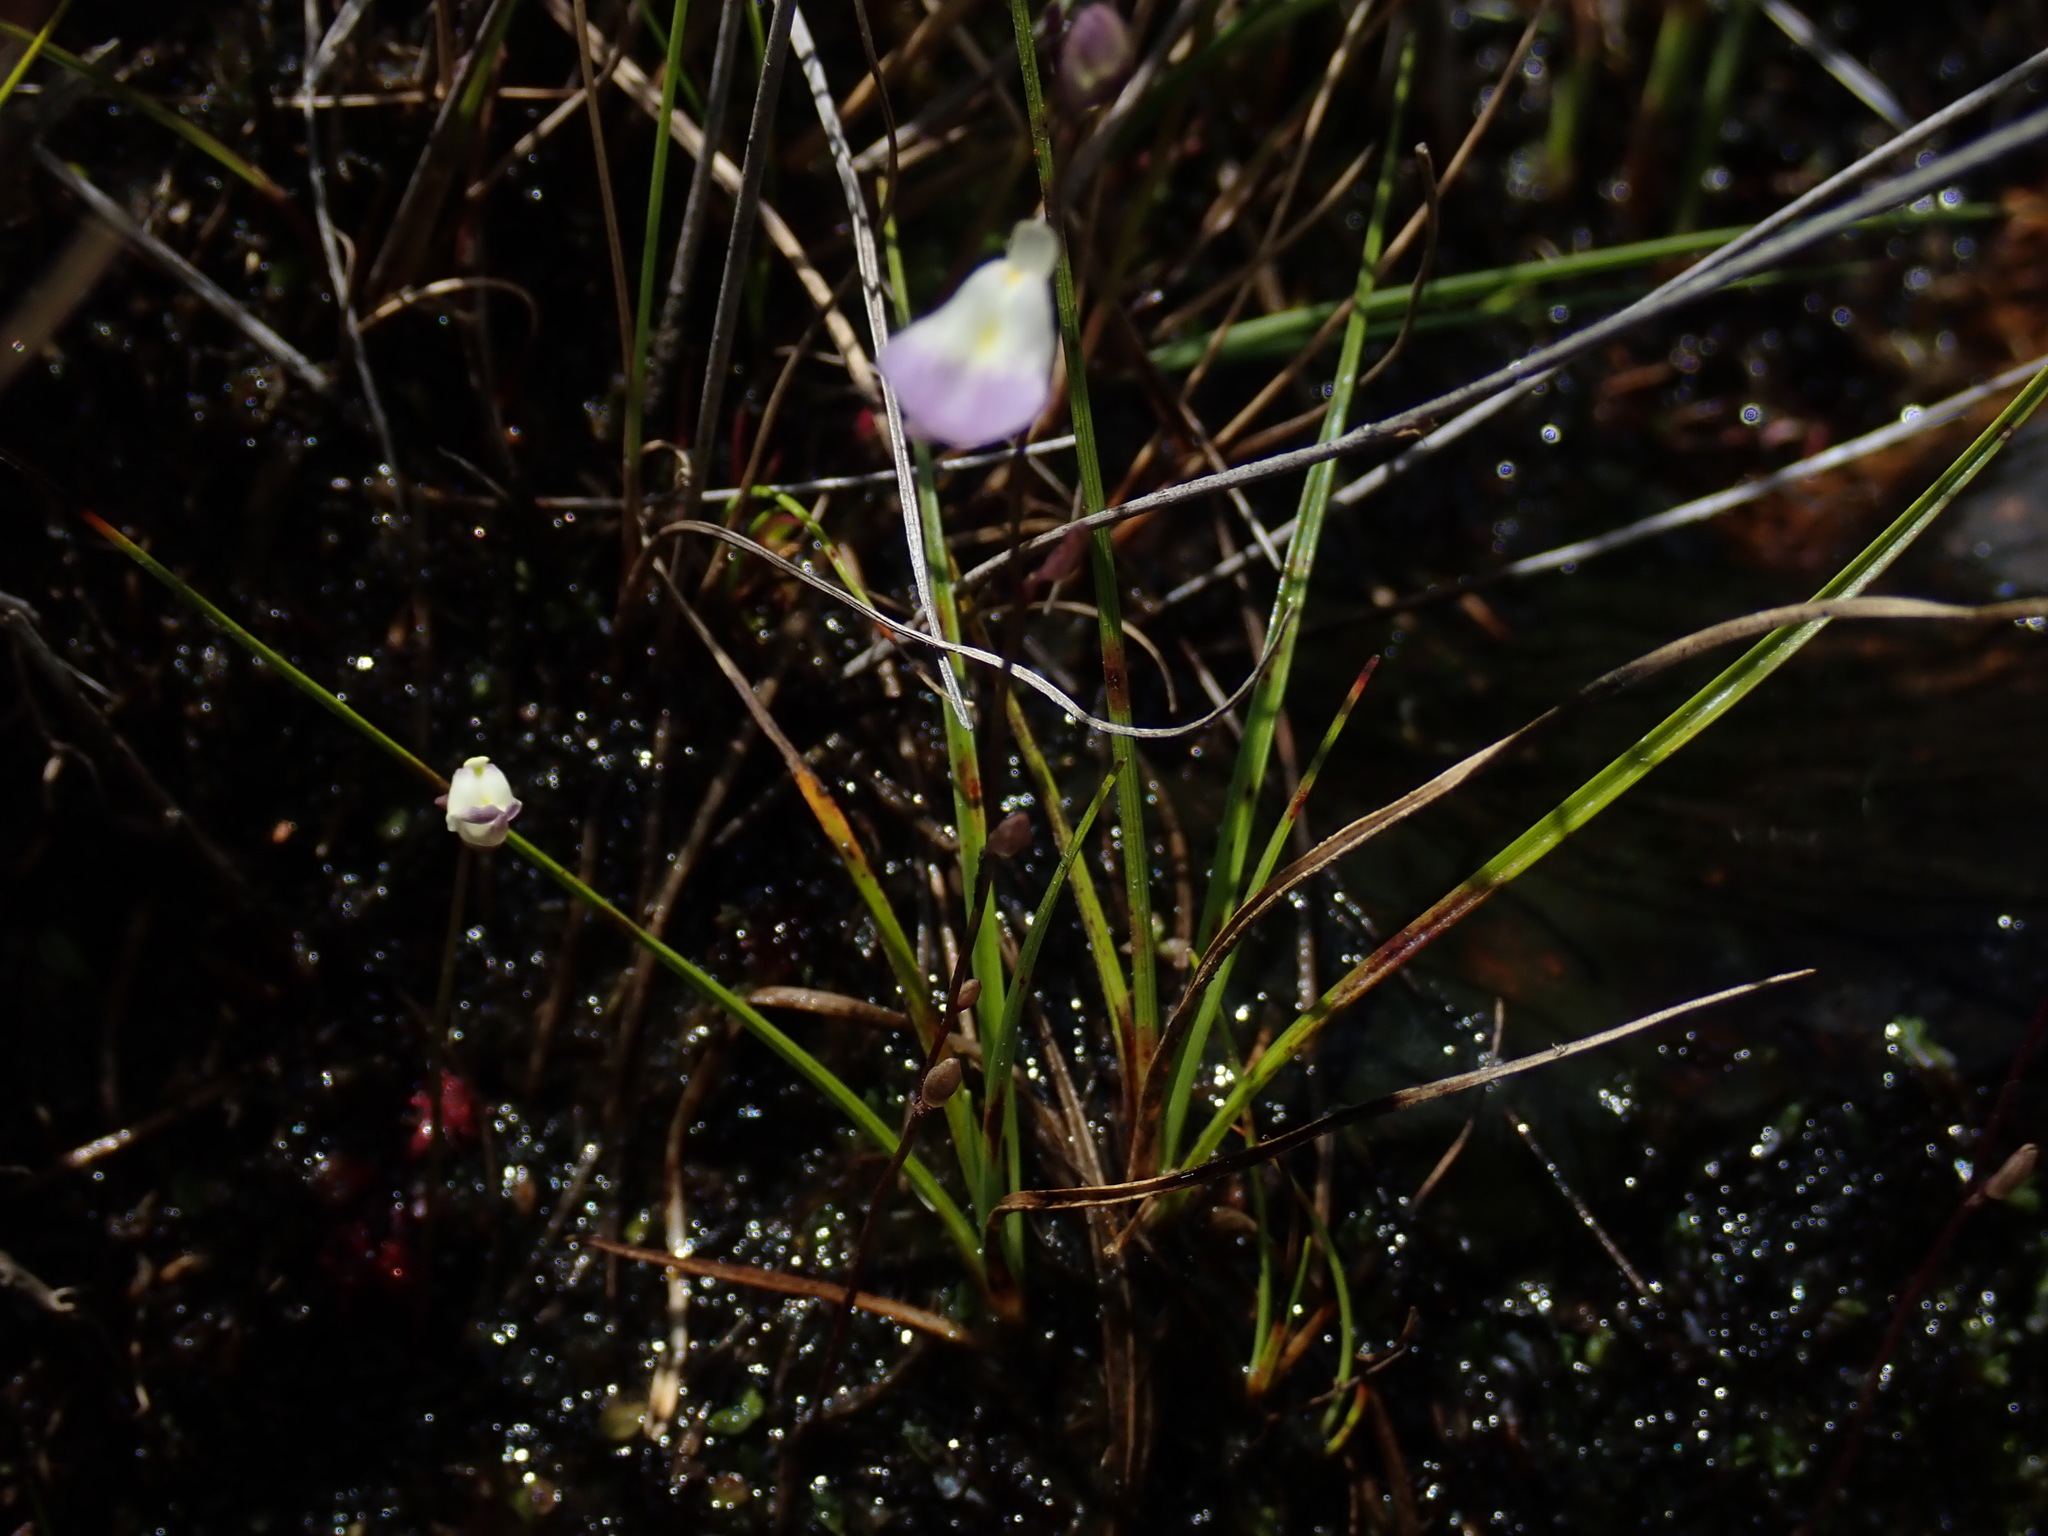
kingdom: Plantae
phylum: Tracheophyta
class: Magnoliopsida
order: Lamiales
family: Lentibulariaceae
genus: Utricularia
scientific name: Utricularia livida
